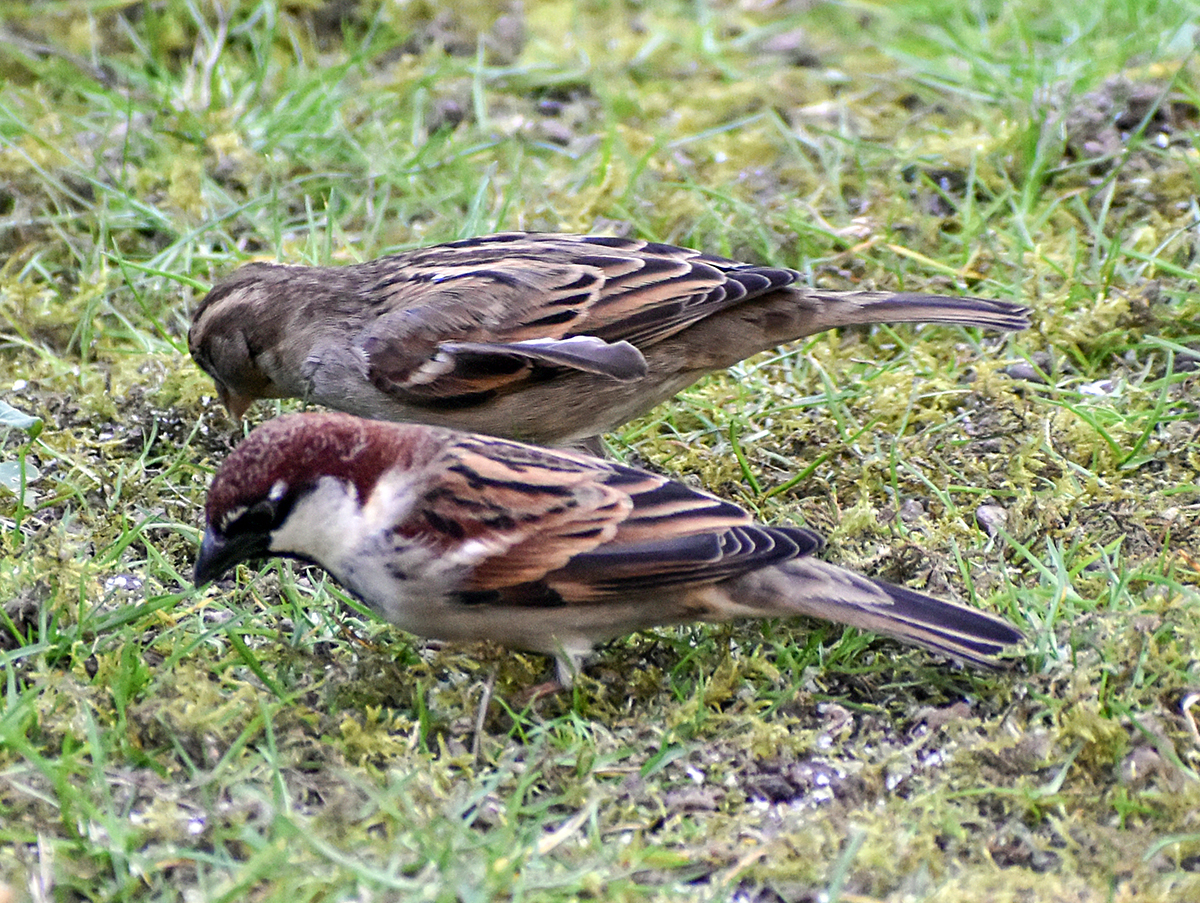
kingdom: Animalia
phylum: Chordata
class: Aves
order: Passeriformes
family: Passeridae
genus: Passer
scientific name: Passer italiae
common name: Italian sparrow
